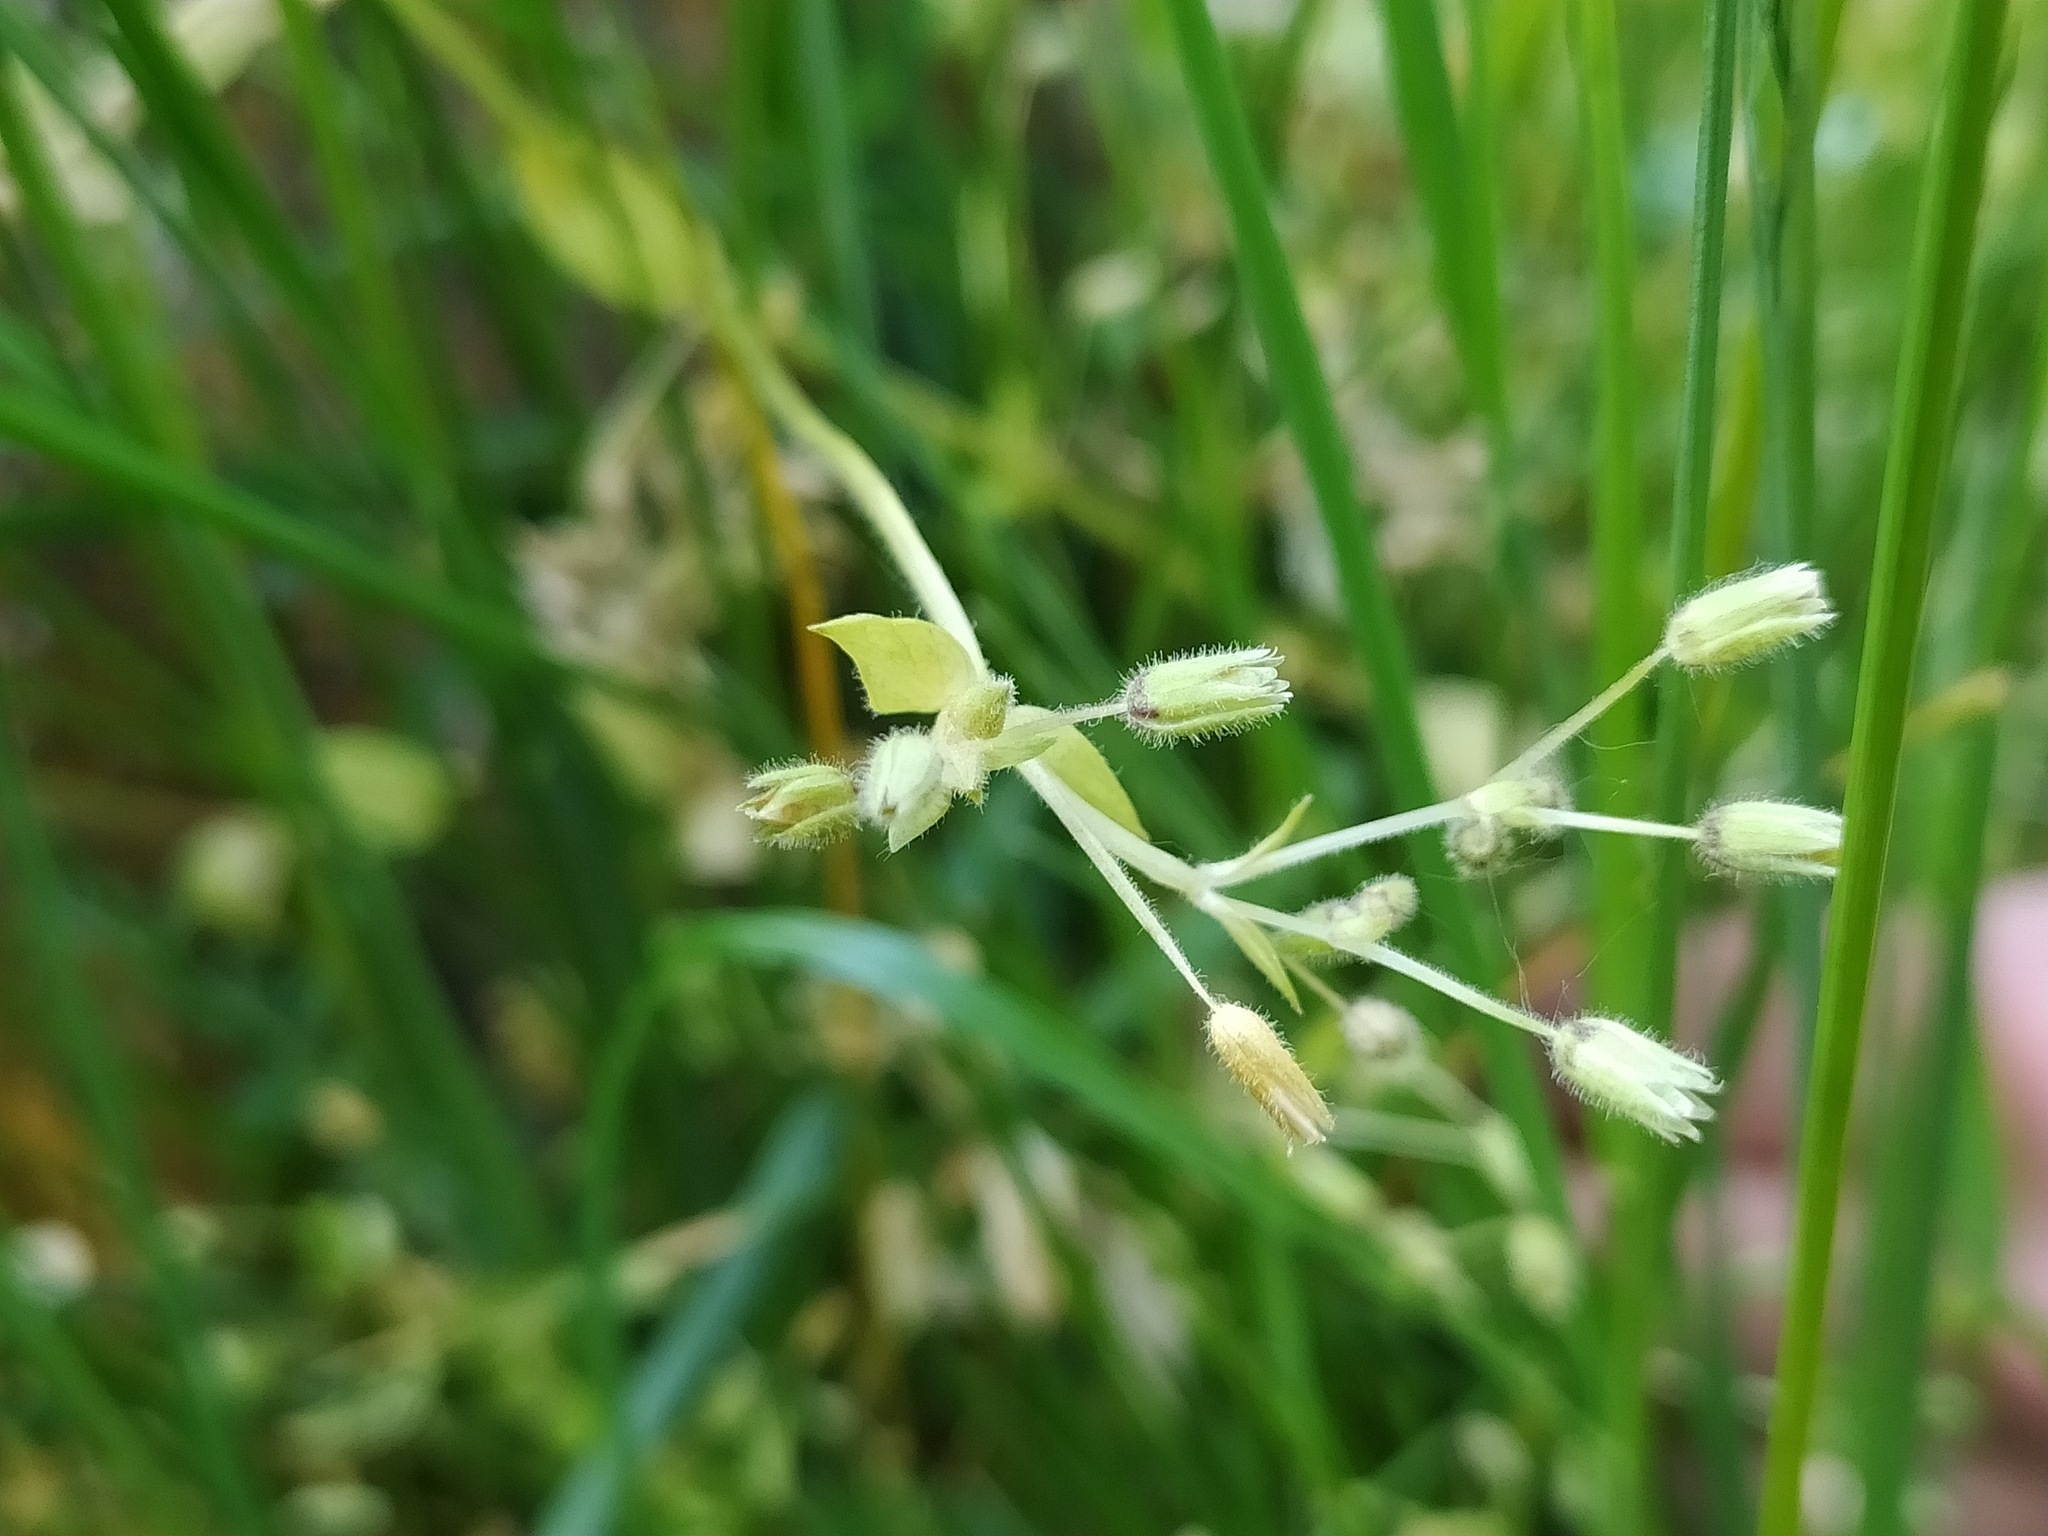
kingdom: Plantae
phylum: Tracheophyta
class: Magnoliopsida
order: Caryophyllales
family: Caryophyllaceae
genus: Stellaria
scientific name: Stellaria apetala
